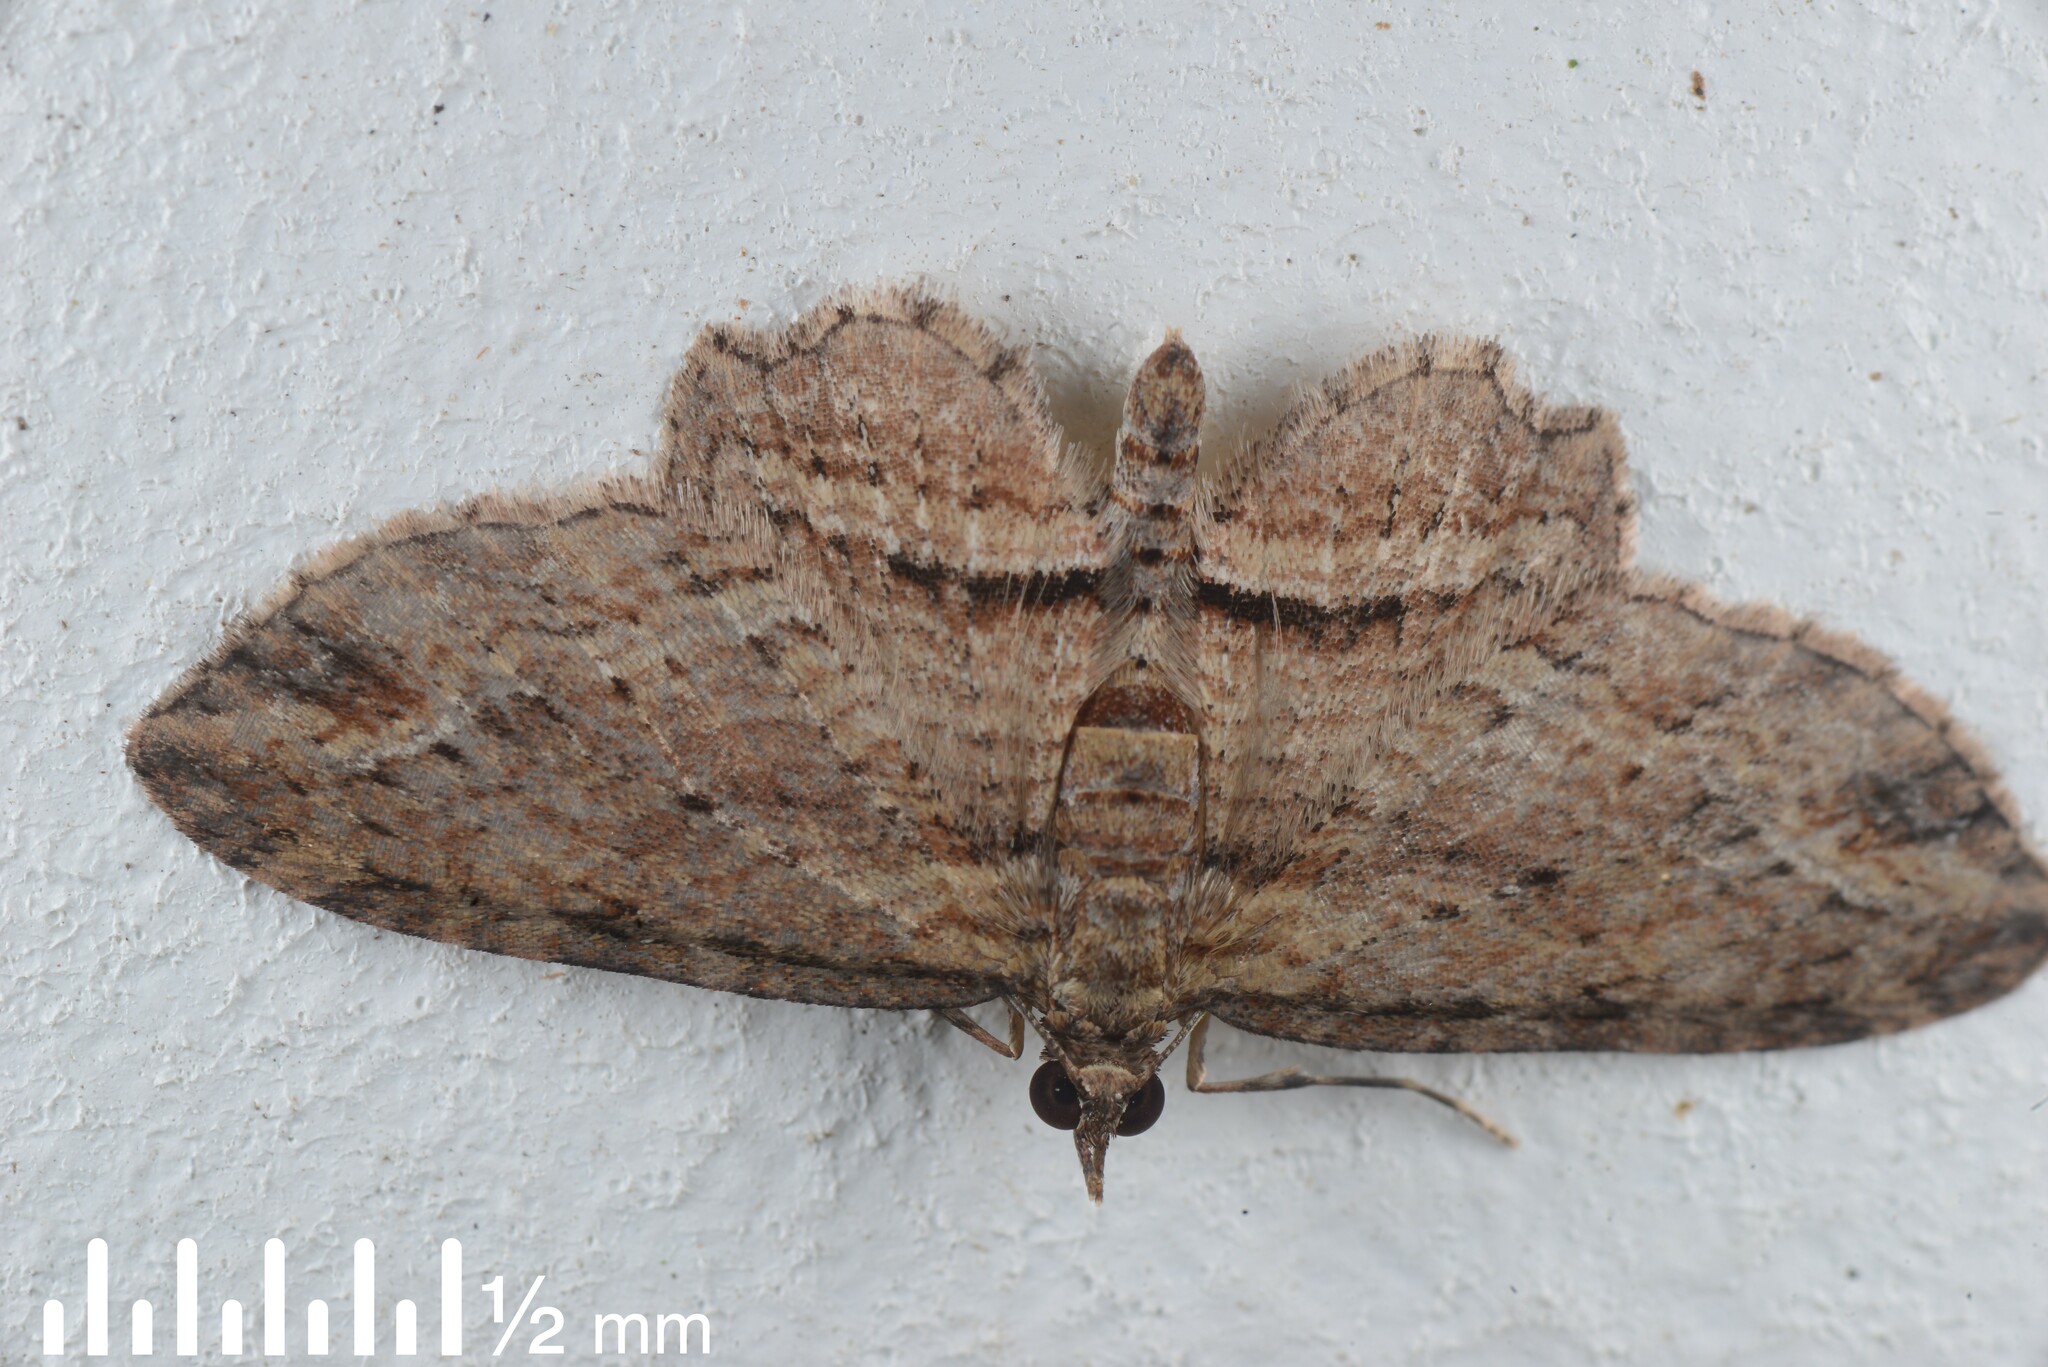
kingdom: Animalia
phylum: Arthropoda
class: Insecta
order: Lepidoptera
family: Geometridae
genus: Chloroclystis
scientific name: Chloroclystis filata
